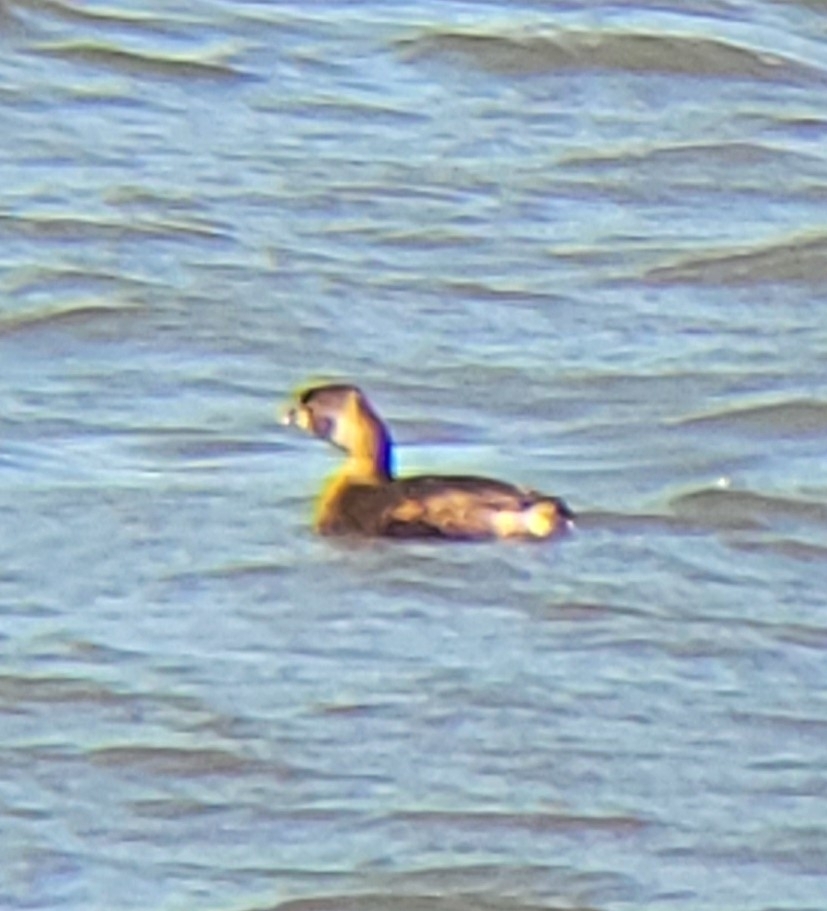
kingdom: Animalia
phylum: Chordata
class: Aves
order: Podicipediformes
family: Podicipedidae
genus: Podilymbus
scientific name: Podilymbus podiceps
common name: Pied-billed grebe
